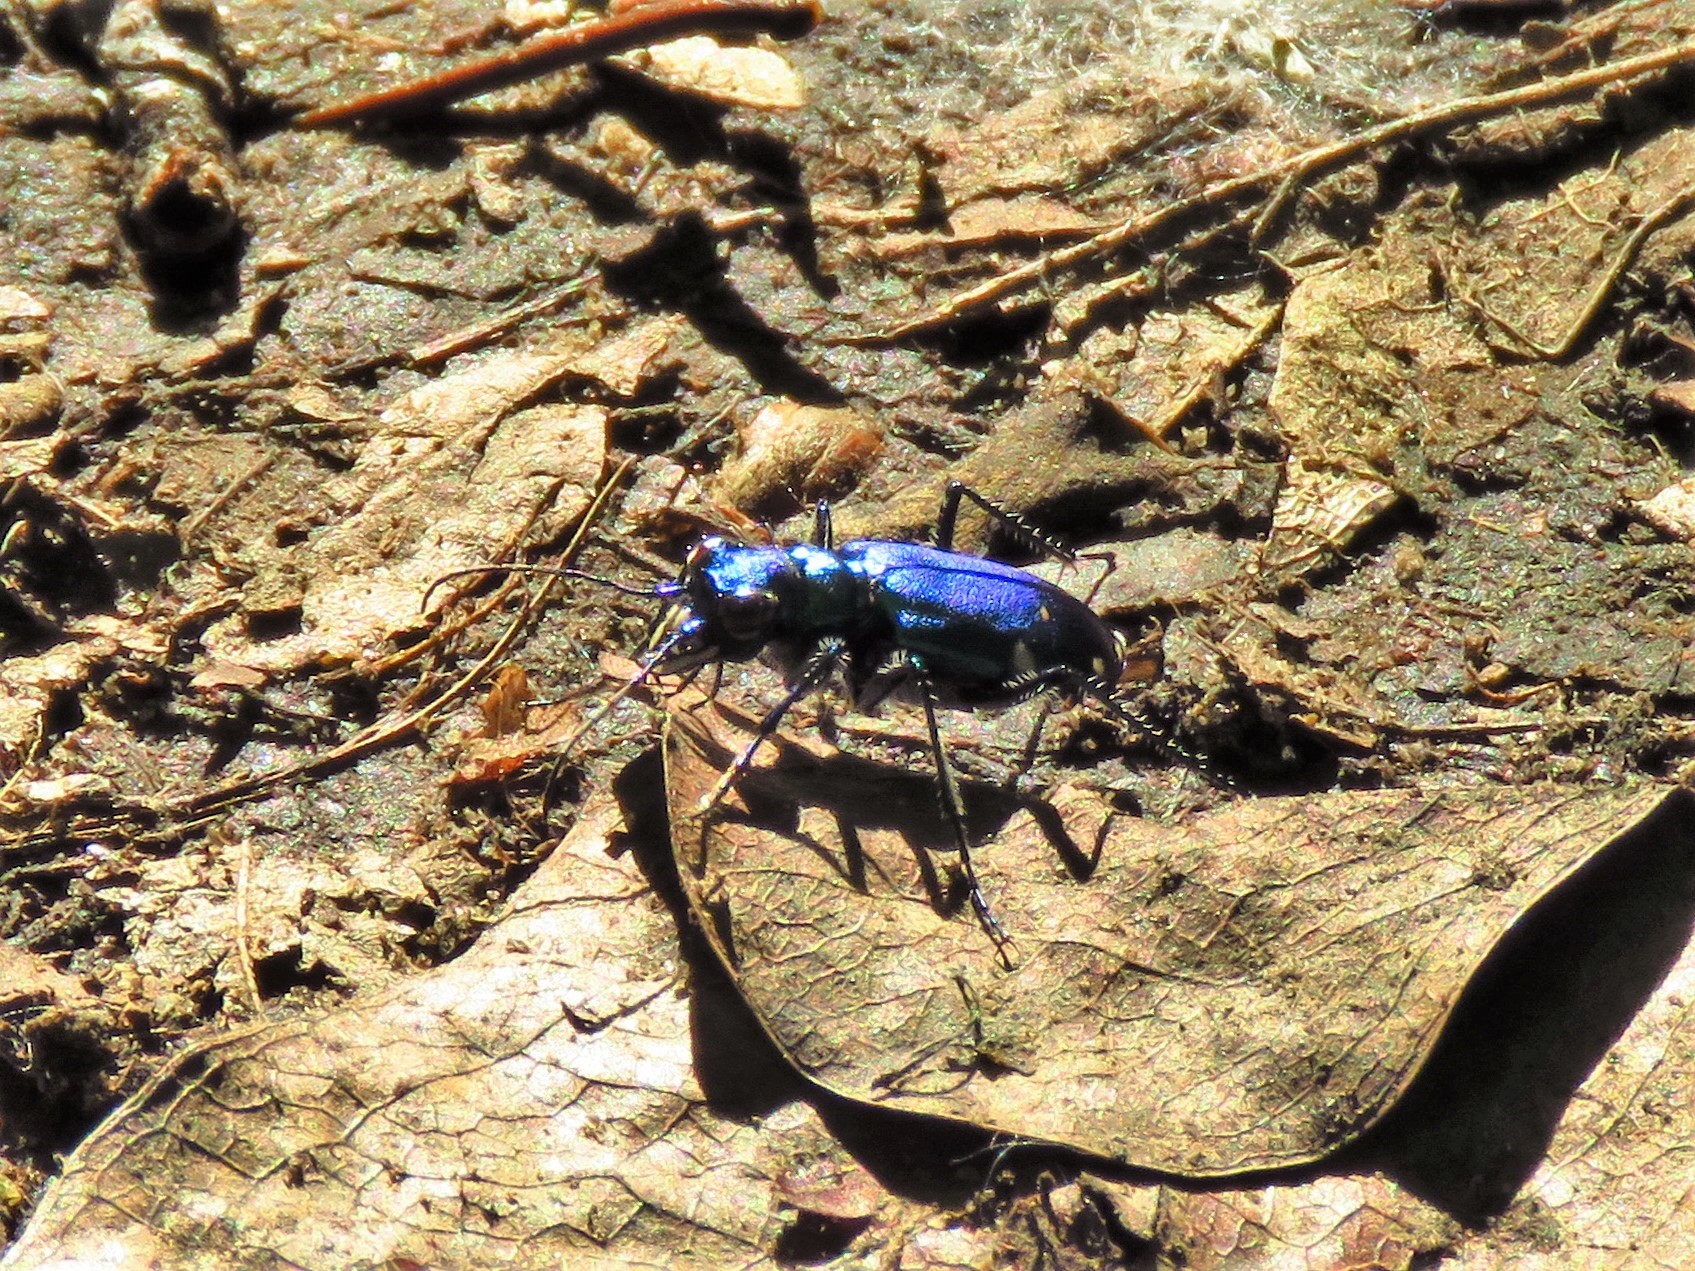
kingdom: Animalia
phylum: Arthropoda
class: Insecta
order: Coleoptera
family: Carabidae
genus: Cicindela
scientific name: Cicindela sexguttata
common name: Six-spotted tiger beetle
